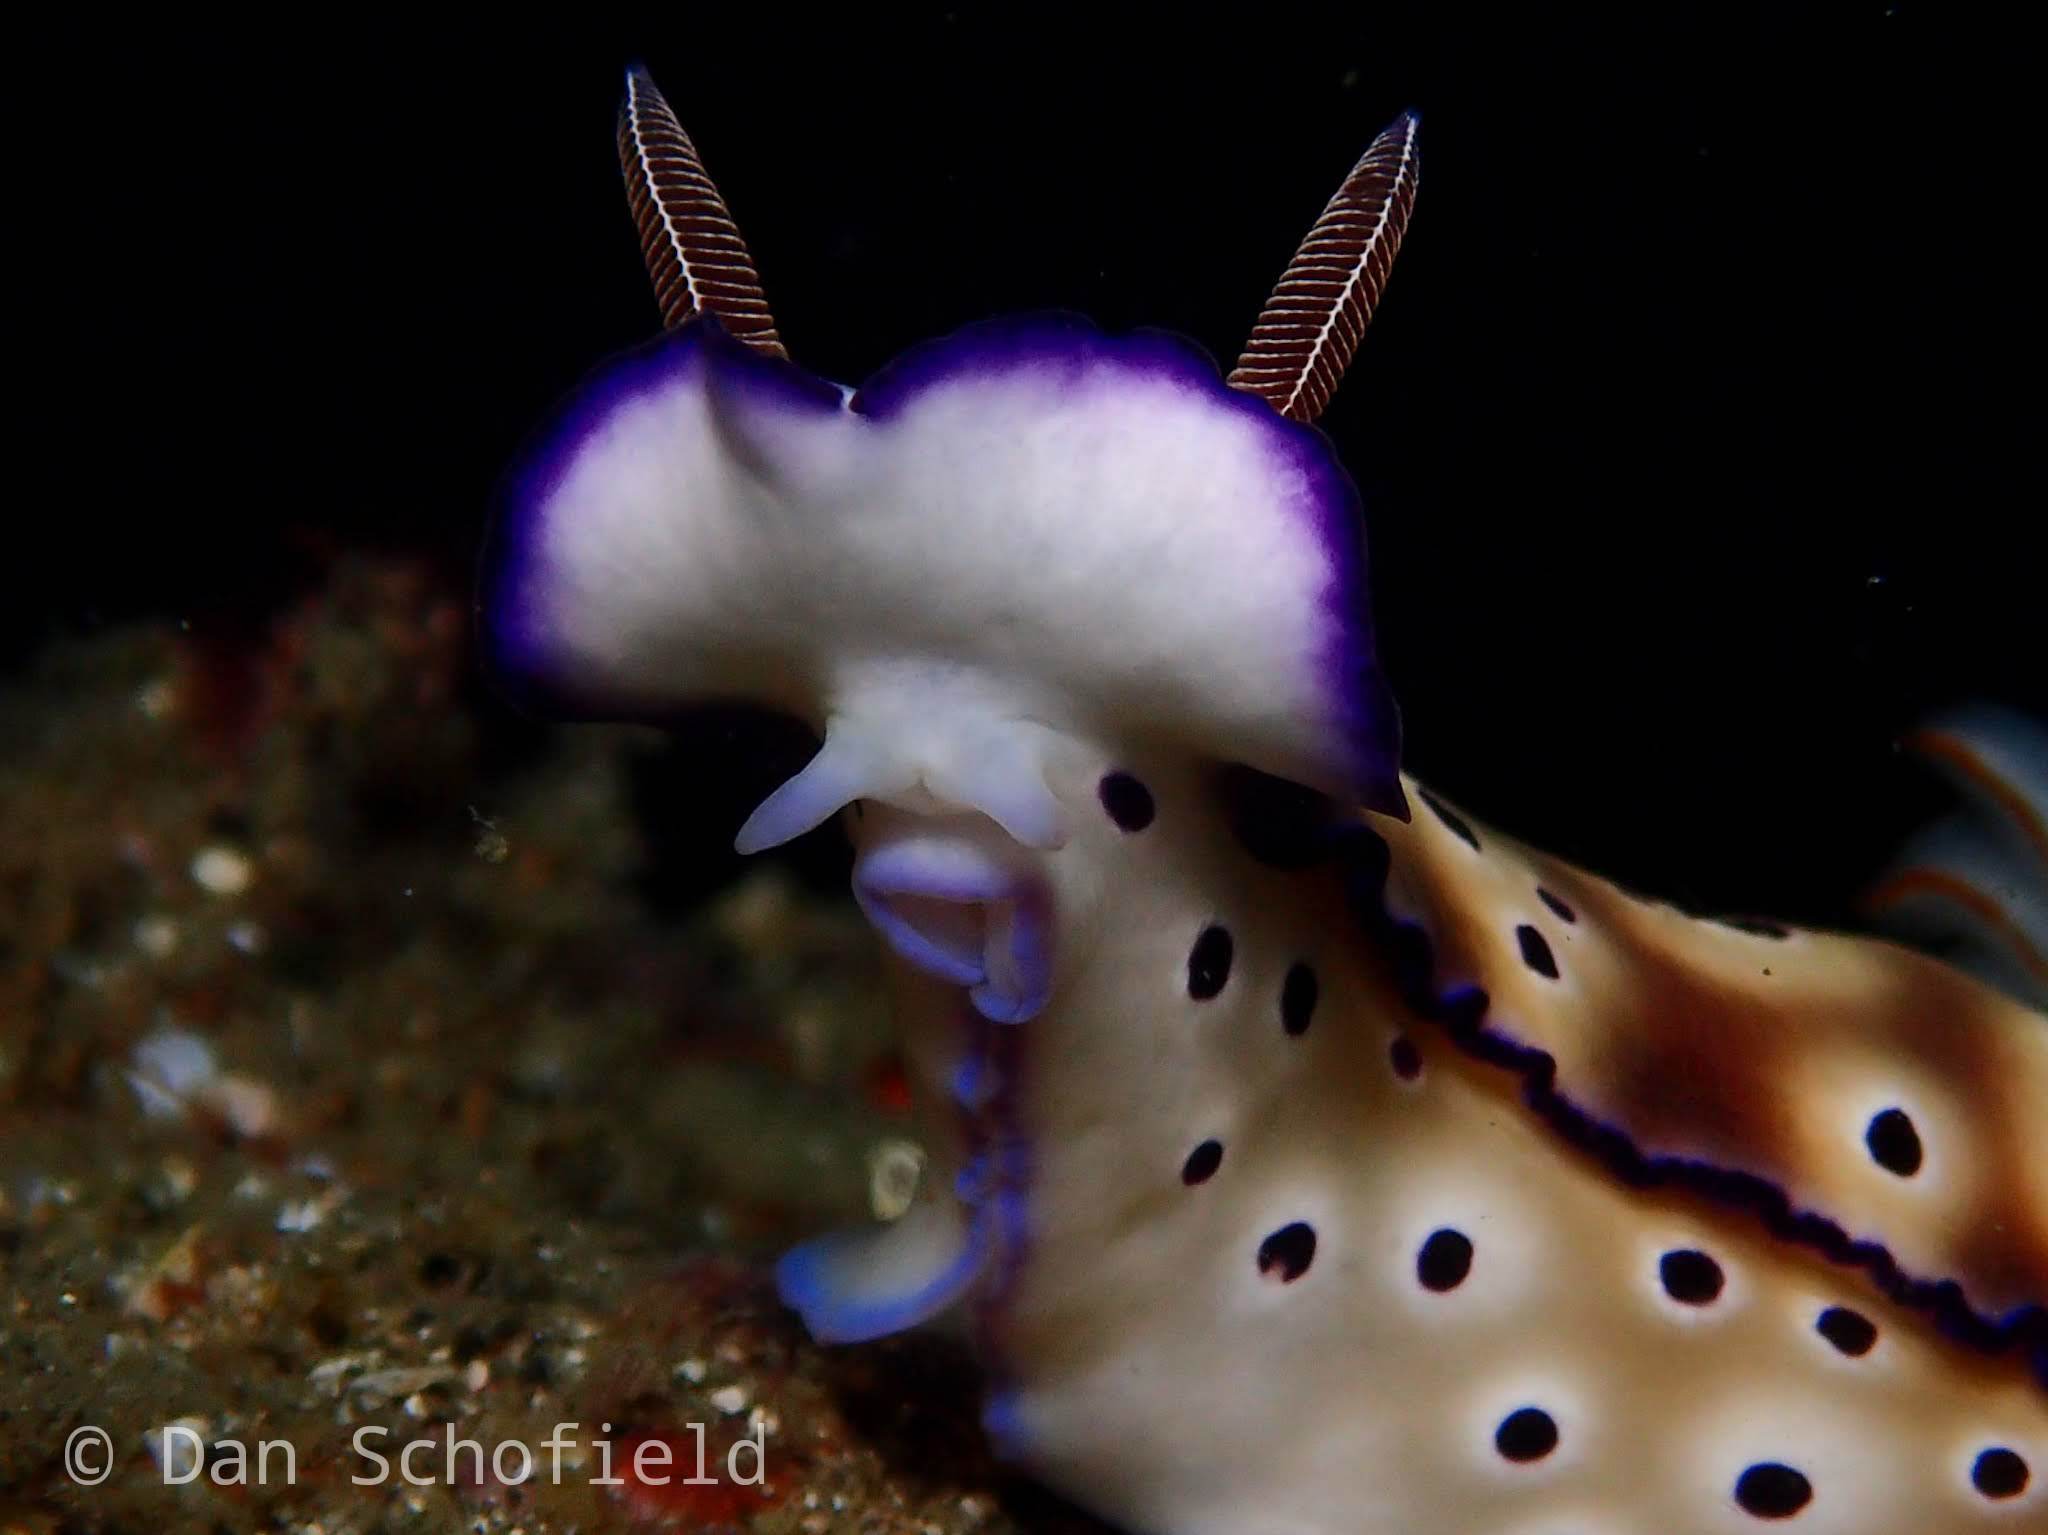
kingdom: Animalia
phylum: Mollusca
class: Gastropoda
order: Nudibranchia
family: Chromodorididae
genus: Hypselodoris
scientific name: Hypselodoris tryoni
